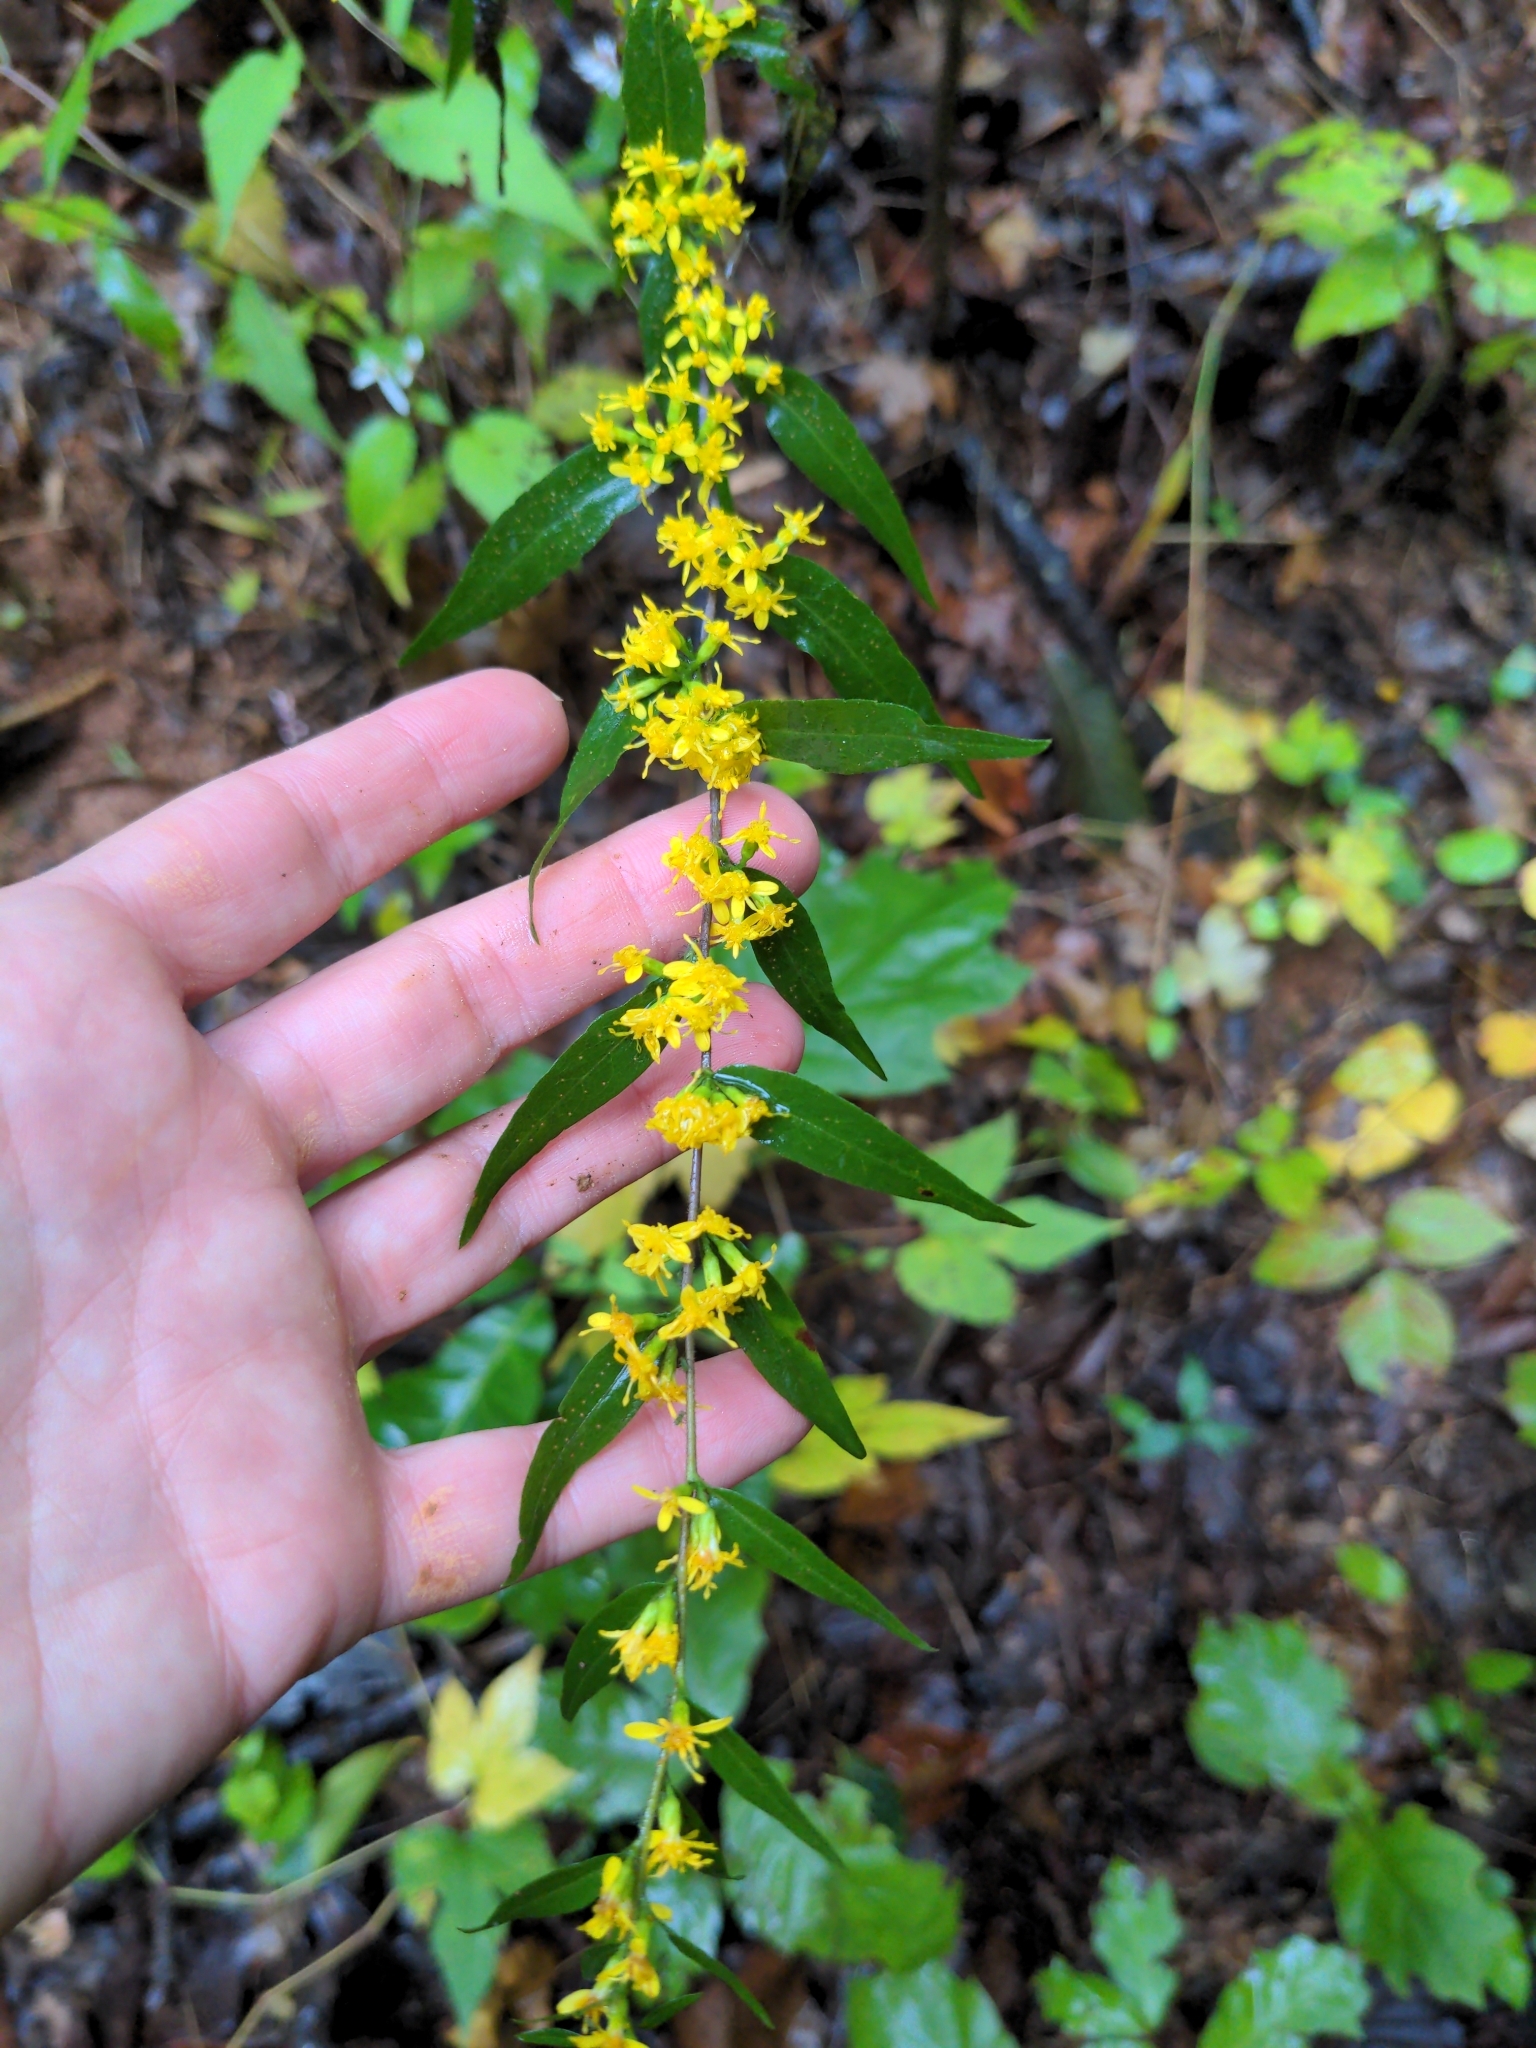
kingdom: Plantae
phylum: Tracheophyta
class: Magnoliopsida
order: Asterales
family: Asteraceae
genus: Solidago
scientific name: Solidago caesia
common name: Woodland goldenrod
